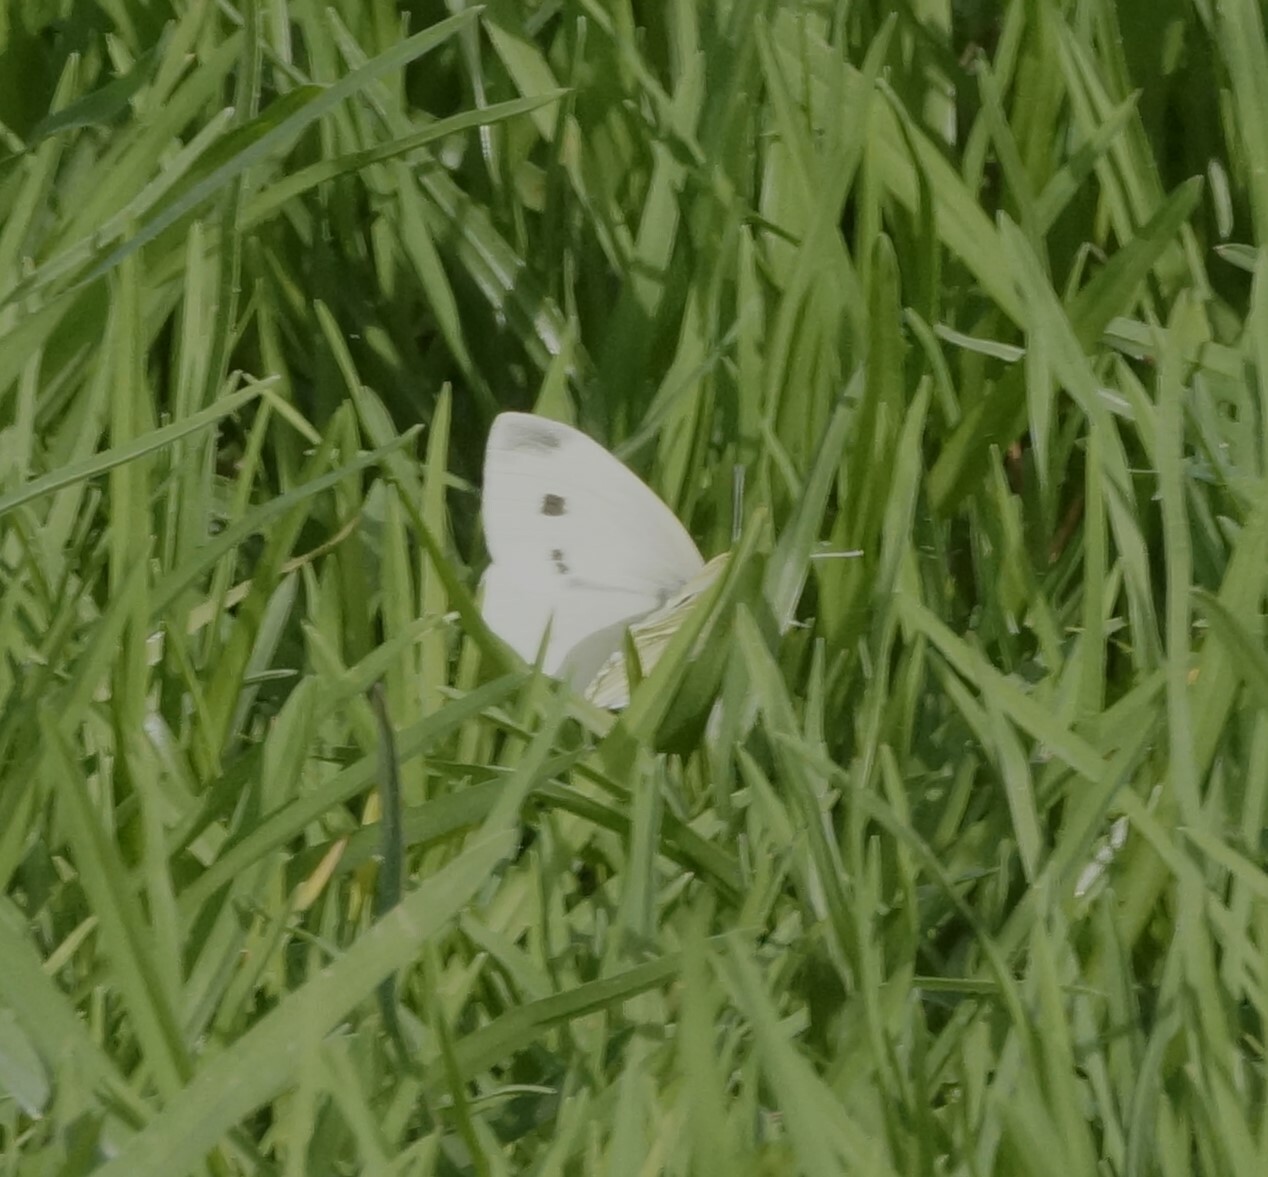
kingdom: Animalia
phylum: Arthropoda
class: Insecta
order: Lepidoptera
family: Pieridae
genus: Pieris
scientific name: Pieris rapae
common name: Small white
